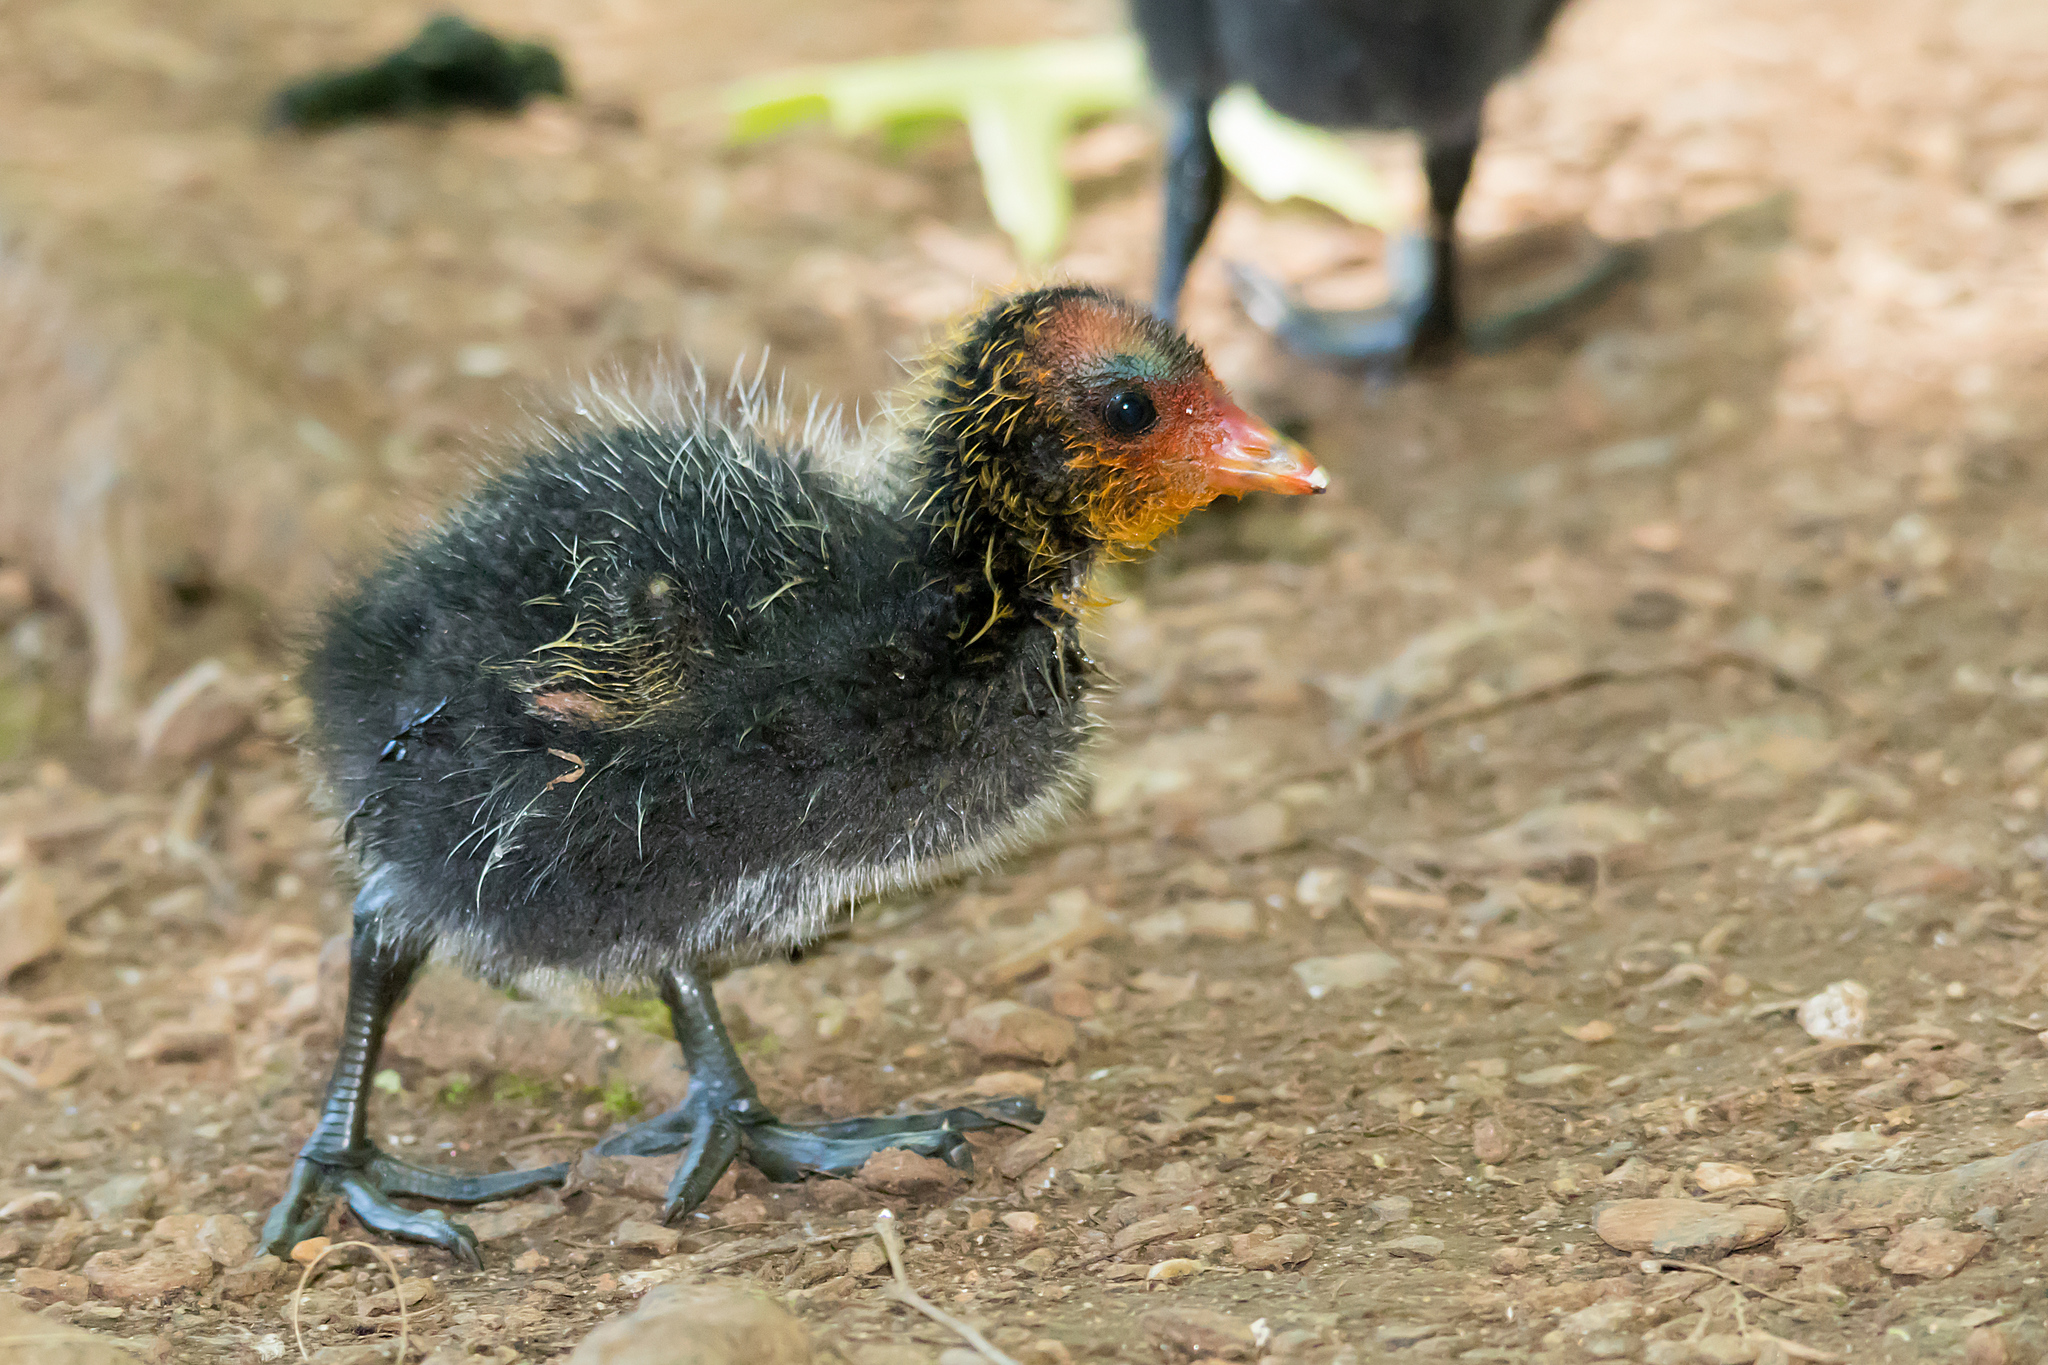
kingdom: Animalia
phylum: Chordata
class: Aves
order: Gruiformes
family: Rallidae
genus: Fulica
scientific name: Fulica atra
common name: Eurasian coot
